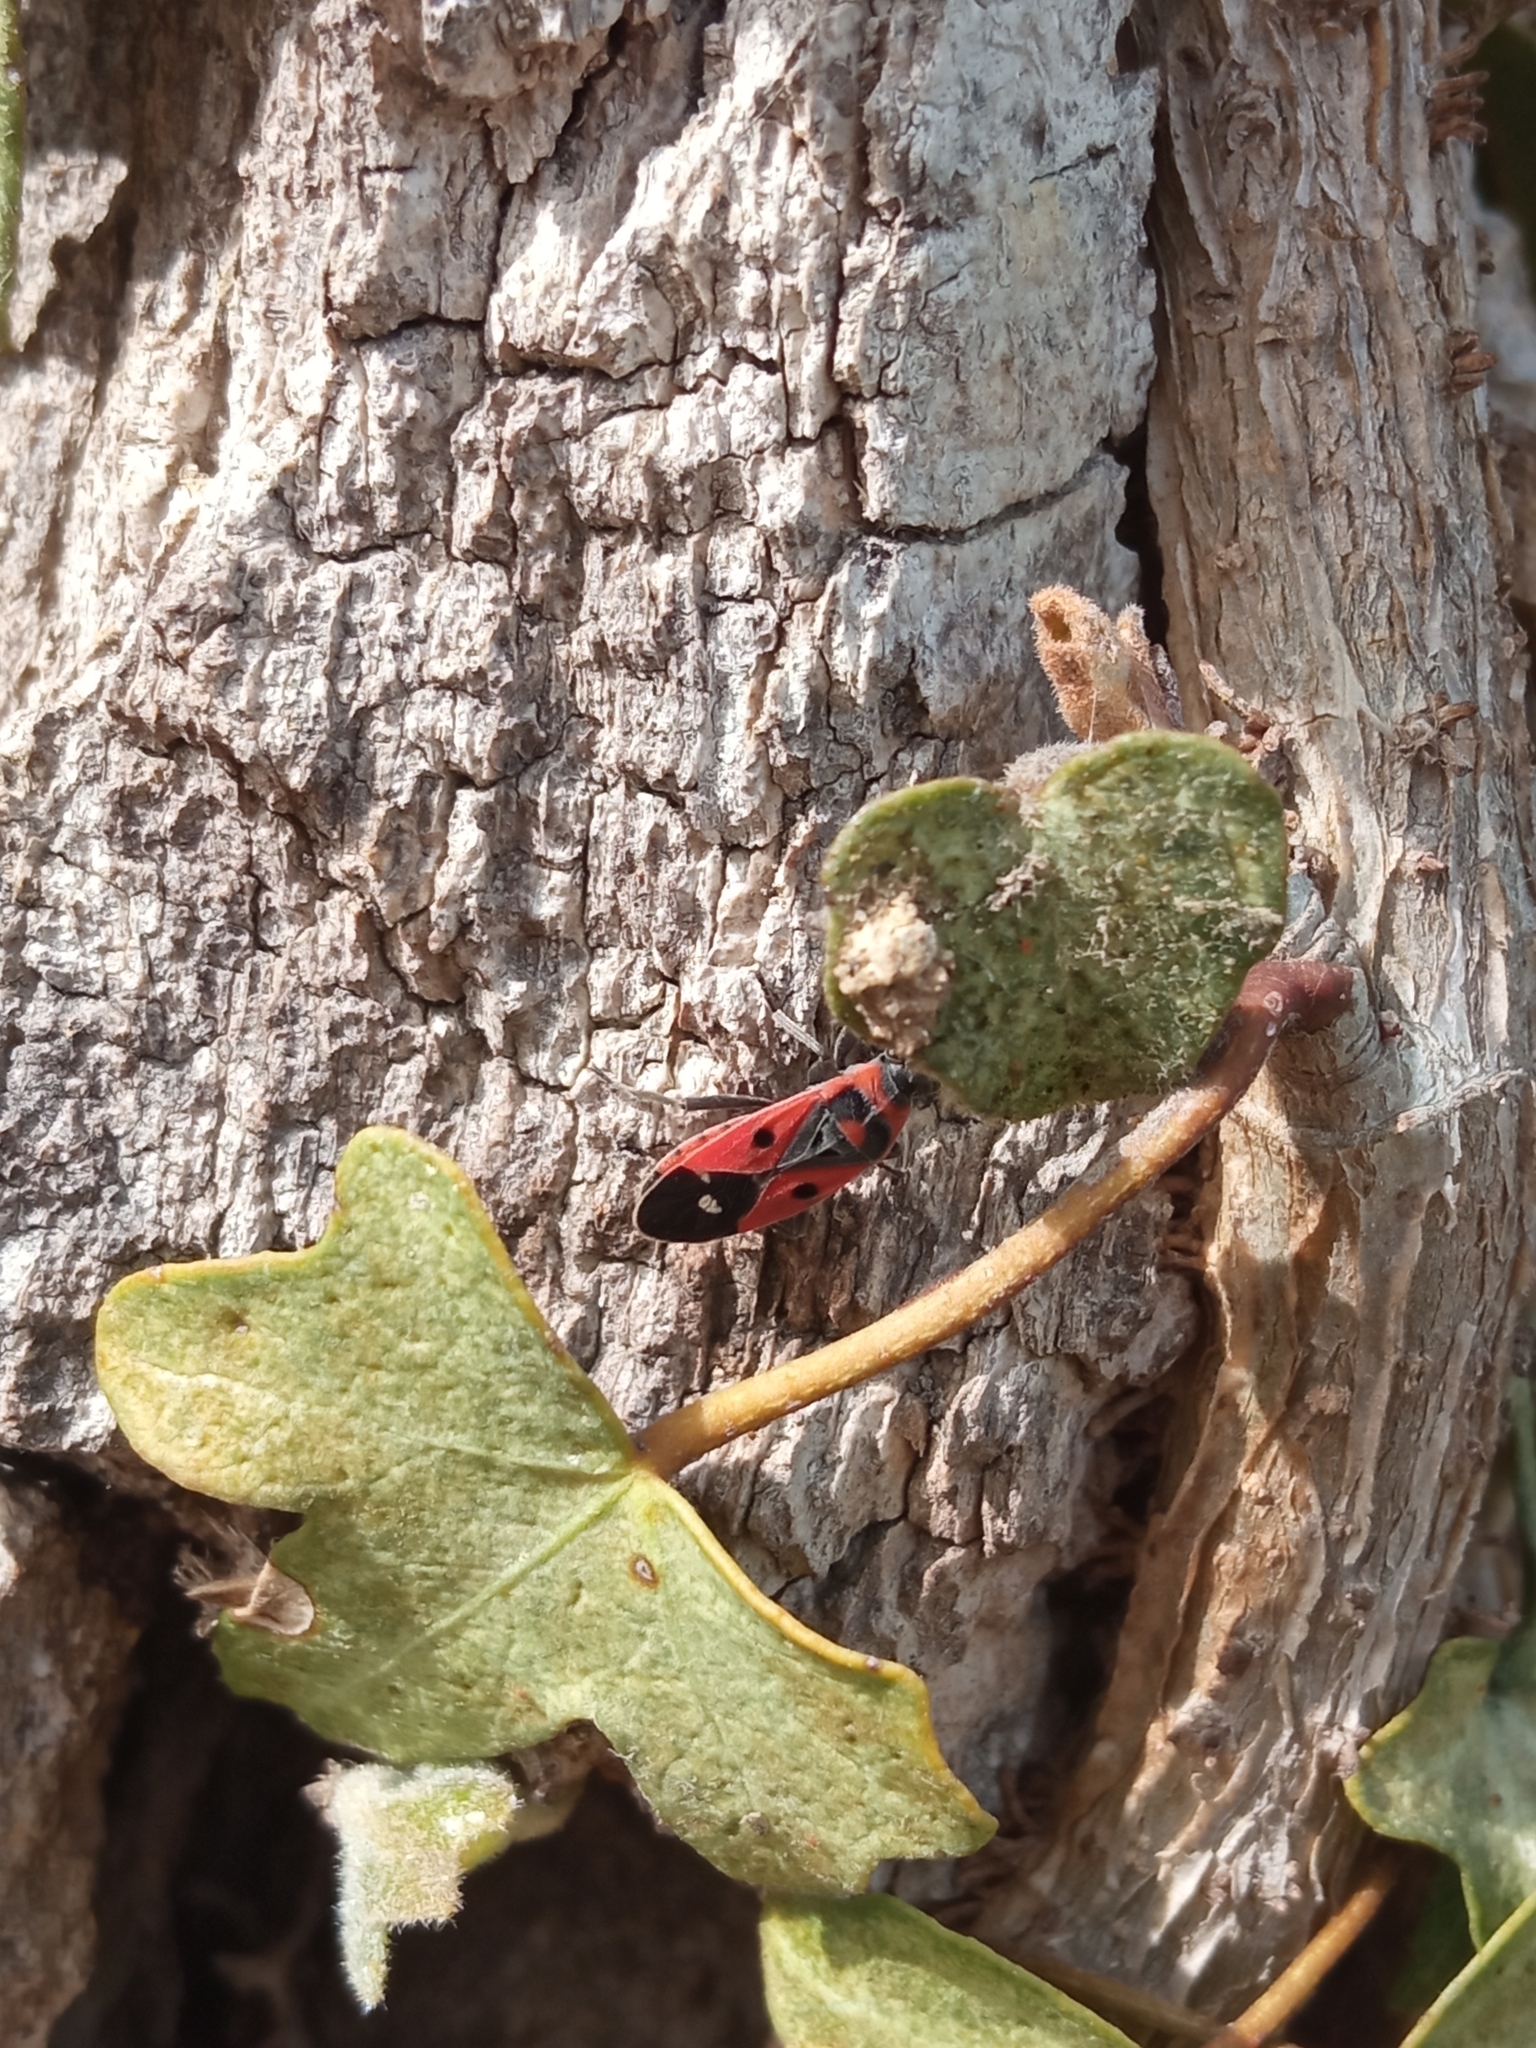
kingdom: Animalia
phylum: Arthropoda
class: Insecta
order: Hemiptera
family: Lygaeidae
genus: Melanocoryphus
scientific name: Melanocoryphus albomaculatus
